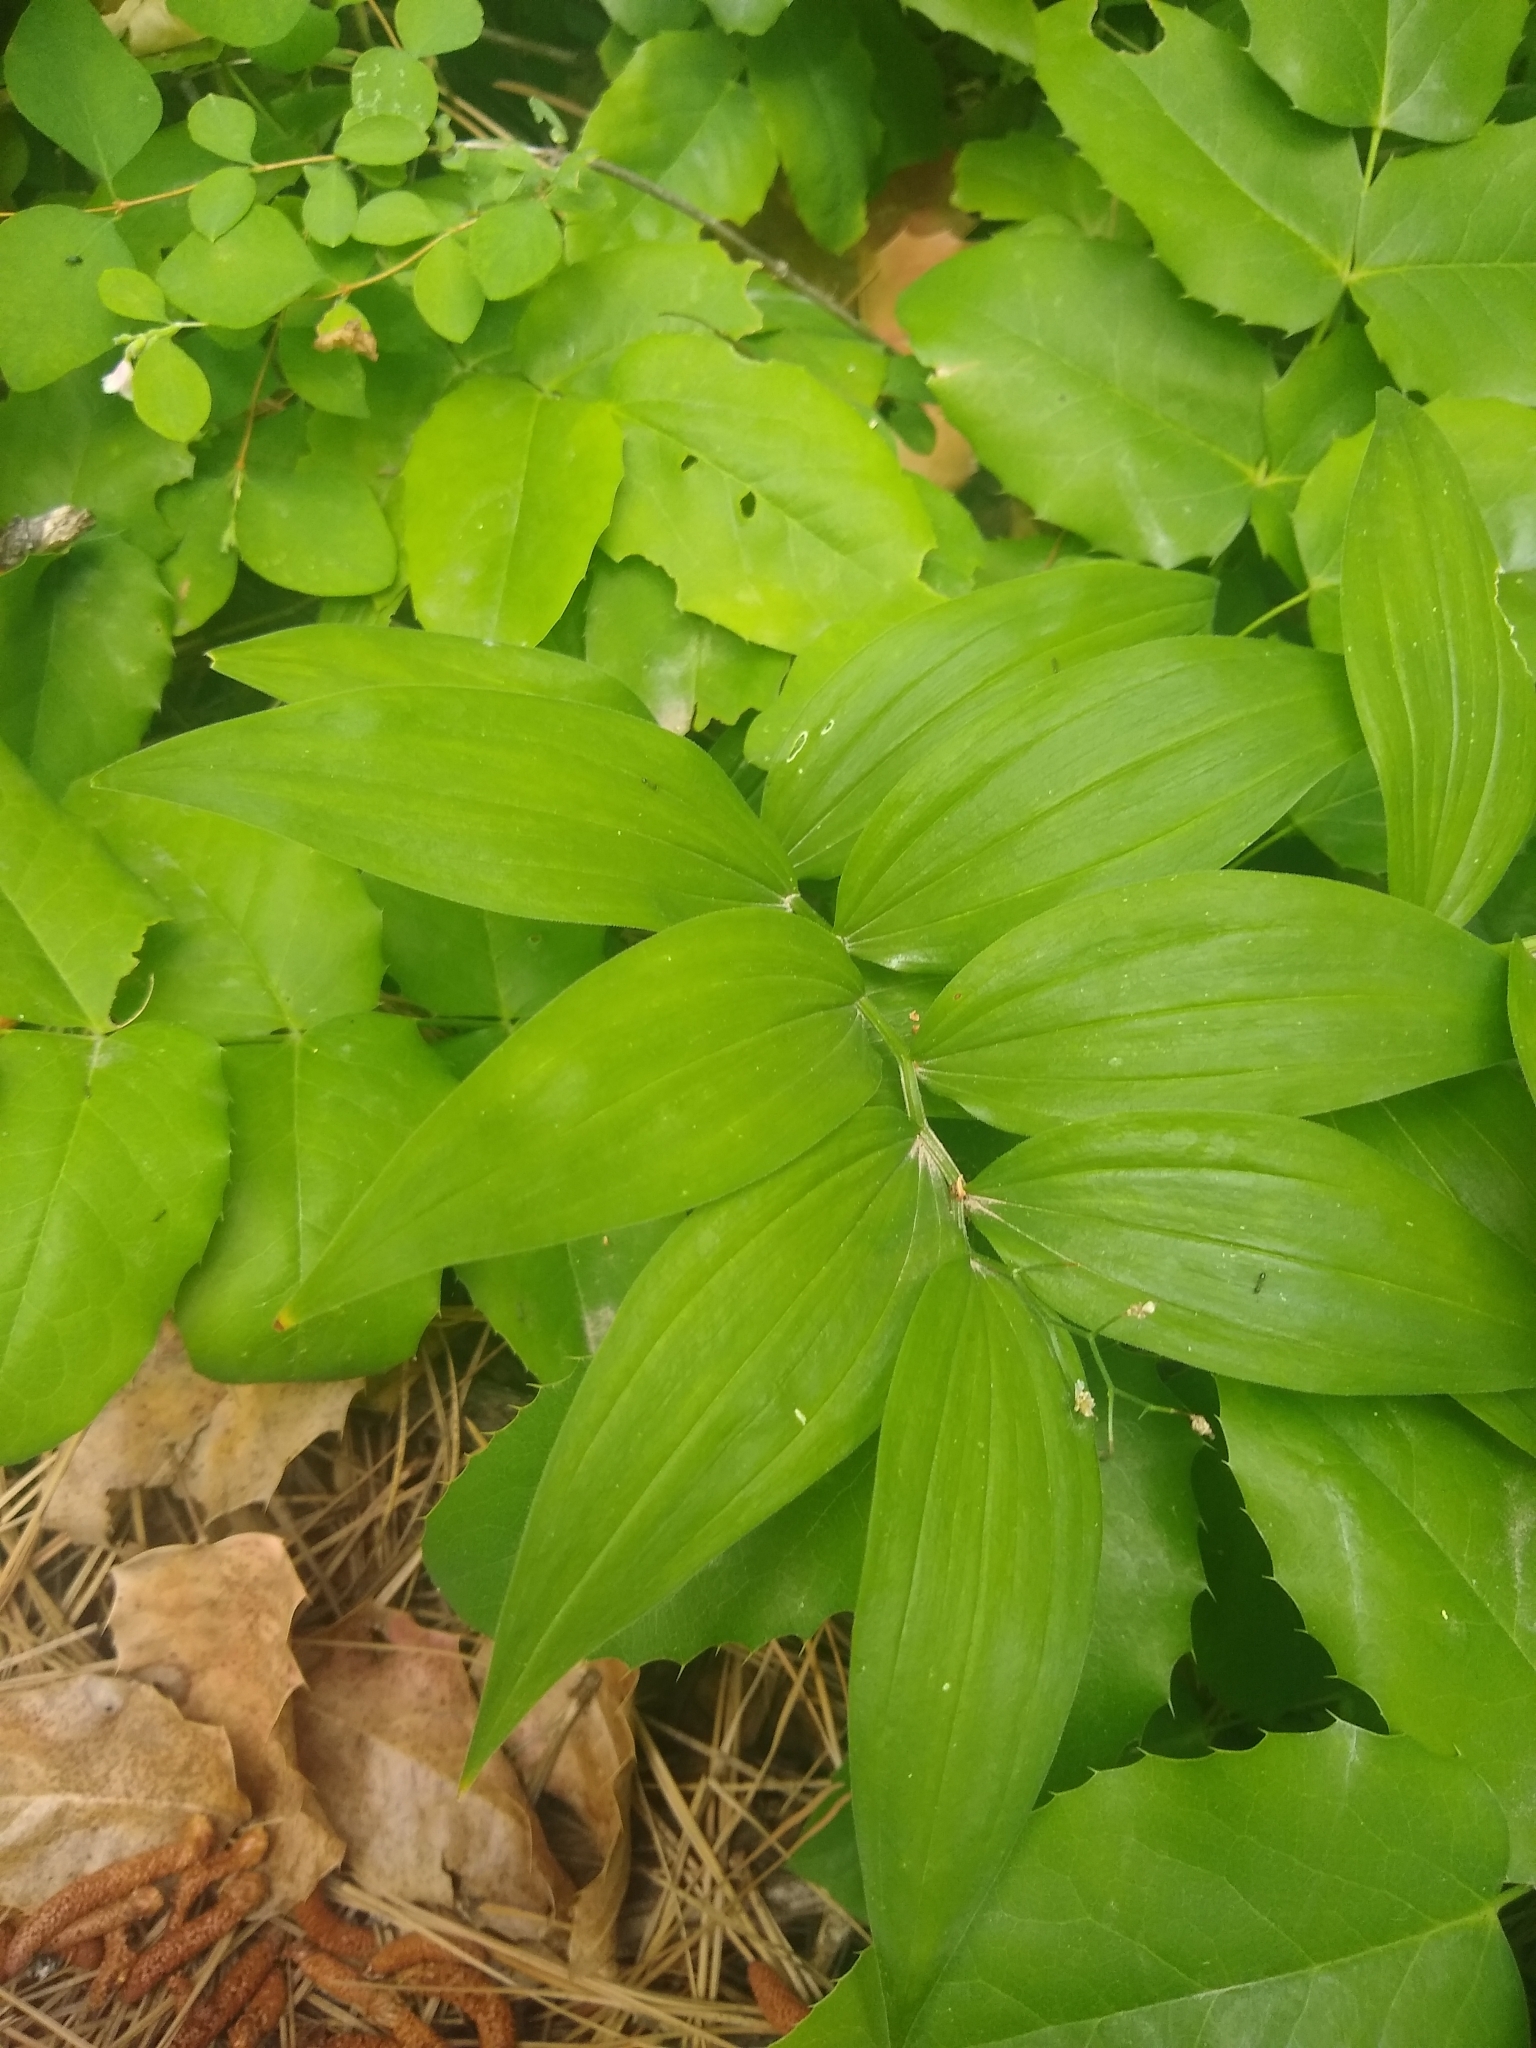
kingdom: Plantae
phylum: Tracheophyta
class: Liliopsida
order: Asparagales
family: Asparagaceae
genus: Maianthemum
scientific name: Maianthemum stellatum
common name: Little false solomon's seal
